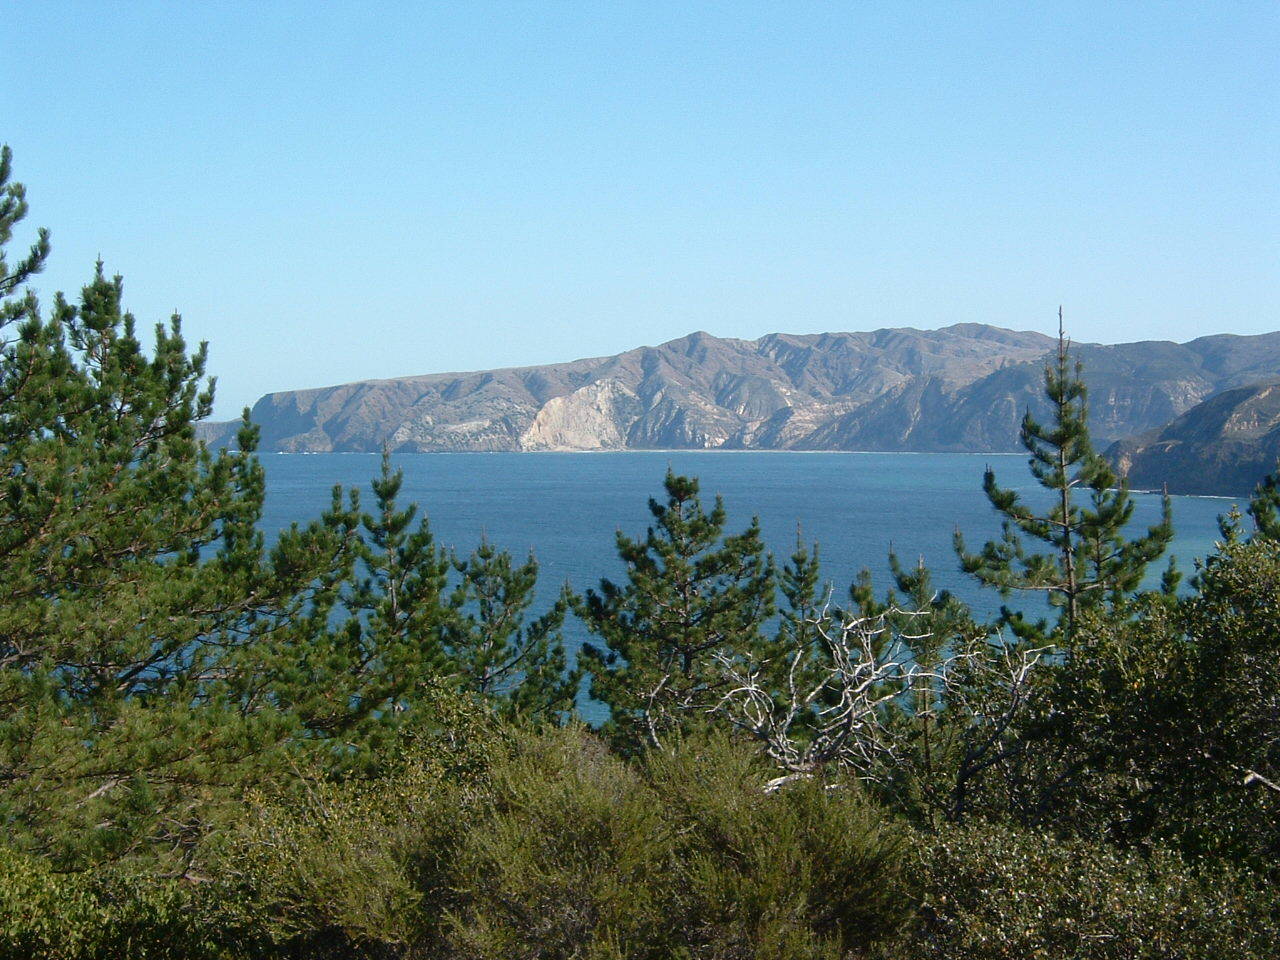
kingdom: Plantae
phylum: Tracheophyta
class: Pinopsida
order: Pinales
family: Pinaceae
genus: Pinus
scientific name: Pinus muricata
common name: Bishop pine
